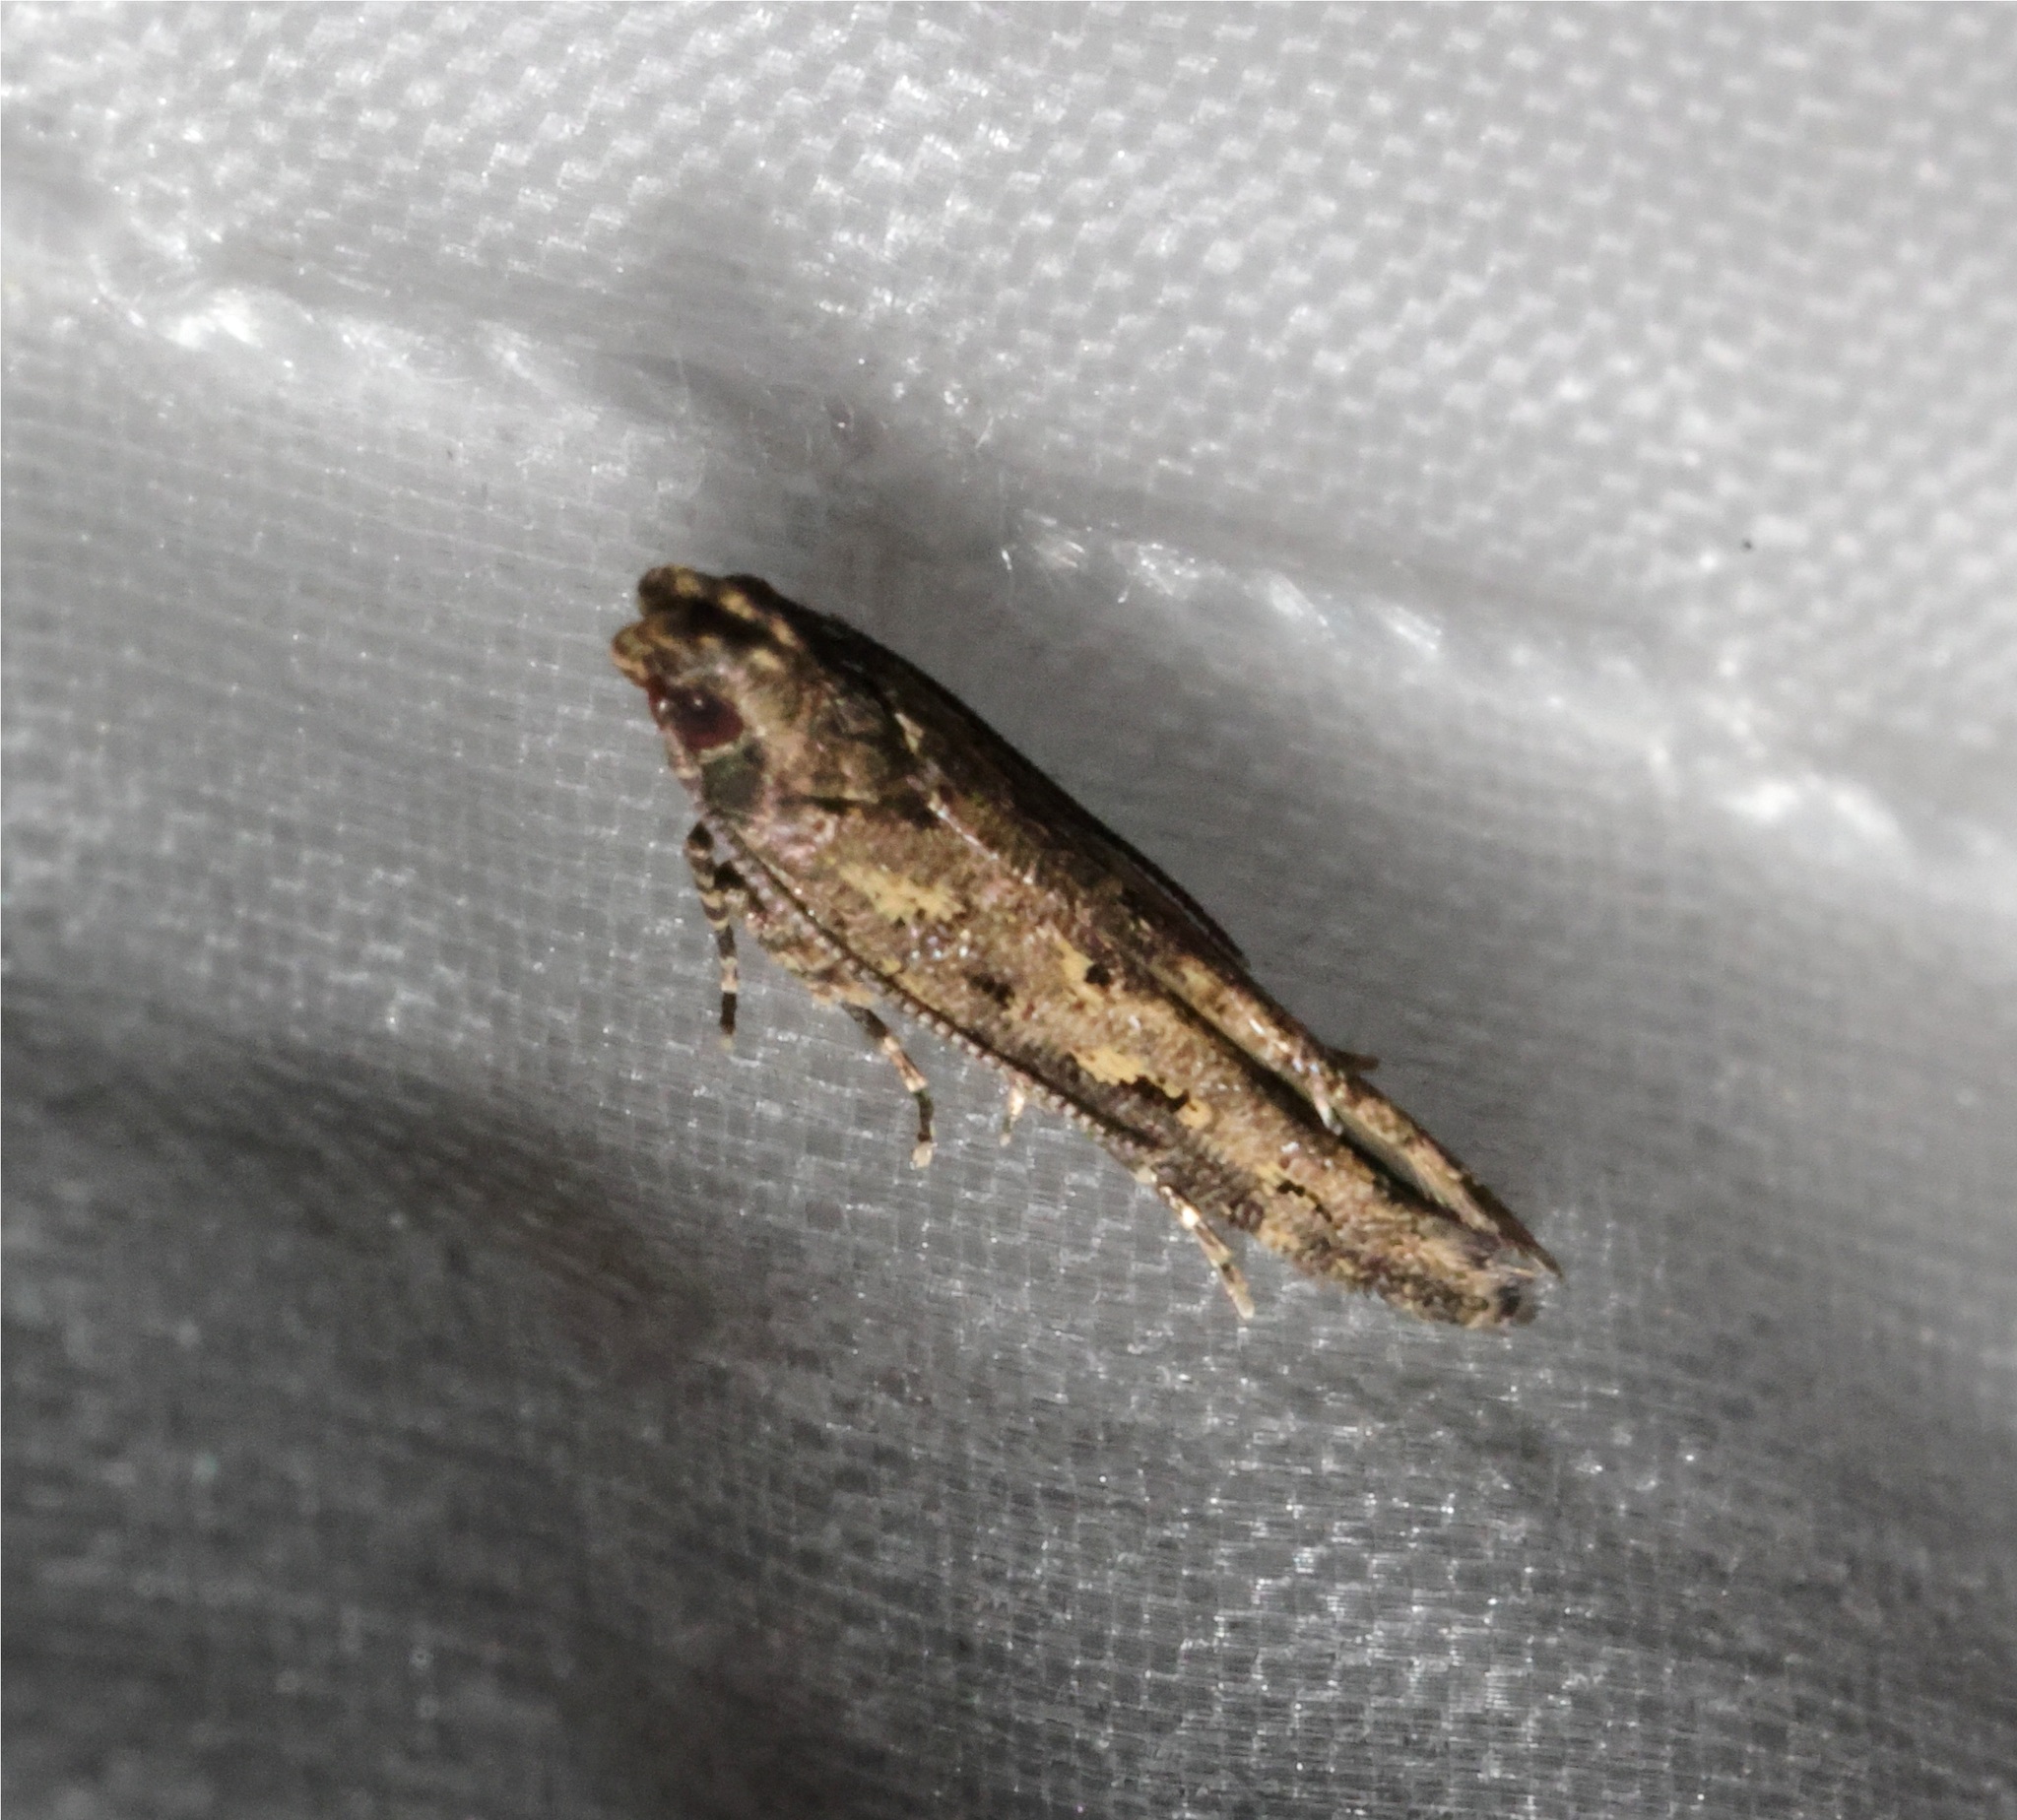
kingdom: Animalia
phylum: Arthropoda
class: Insecta
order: Lepidoptera
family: Gelechiidae
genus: Empedaula
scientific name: Empedaula insipiens
